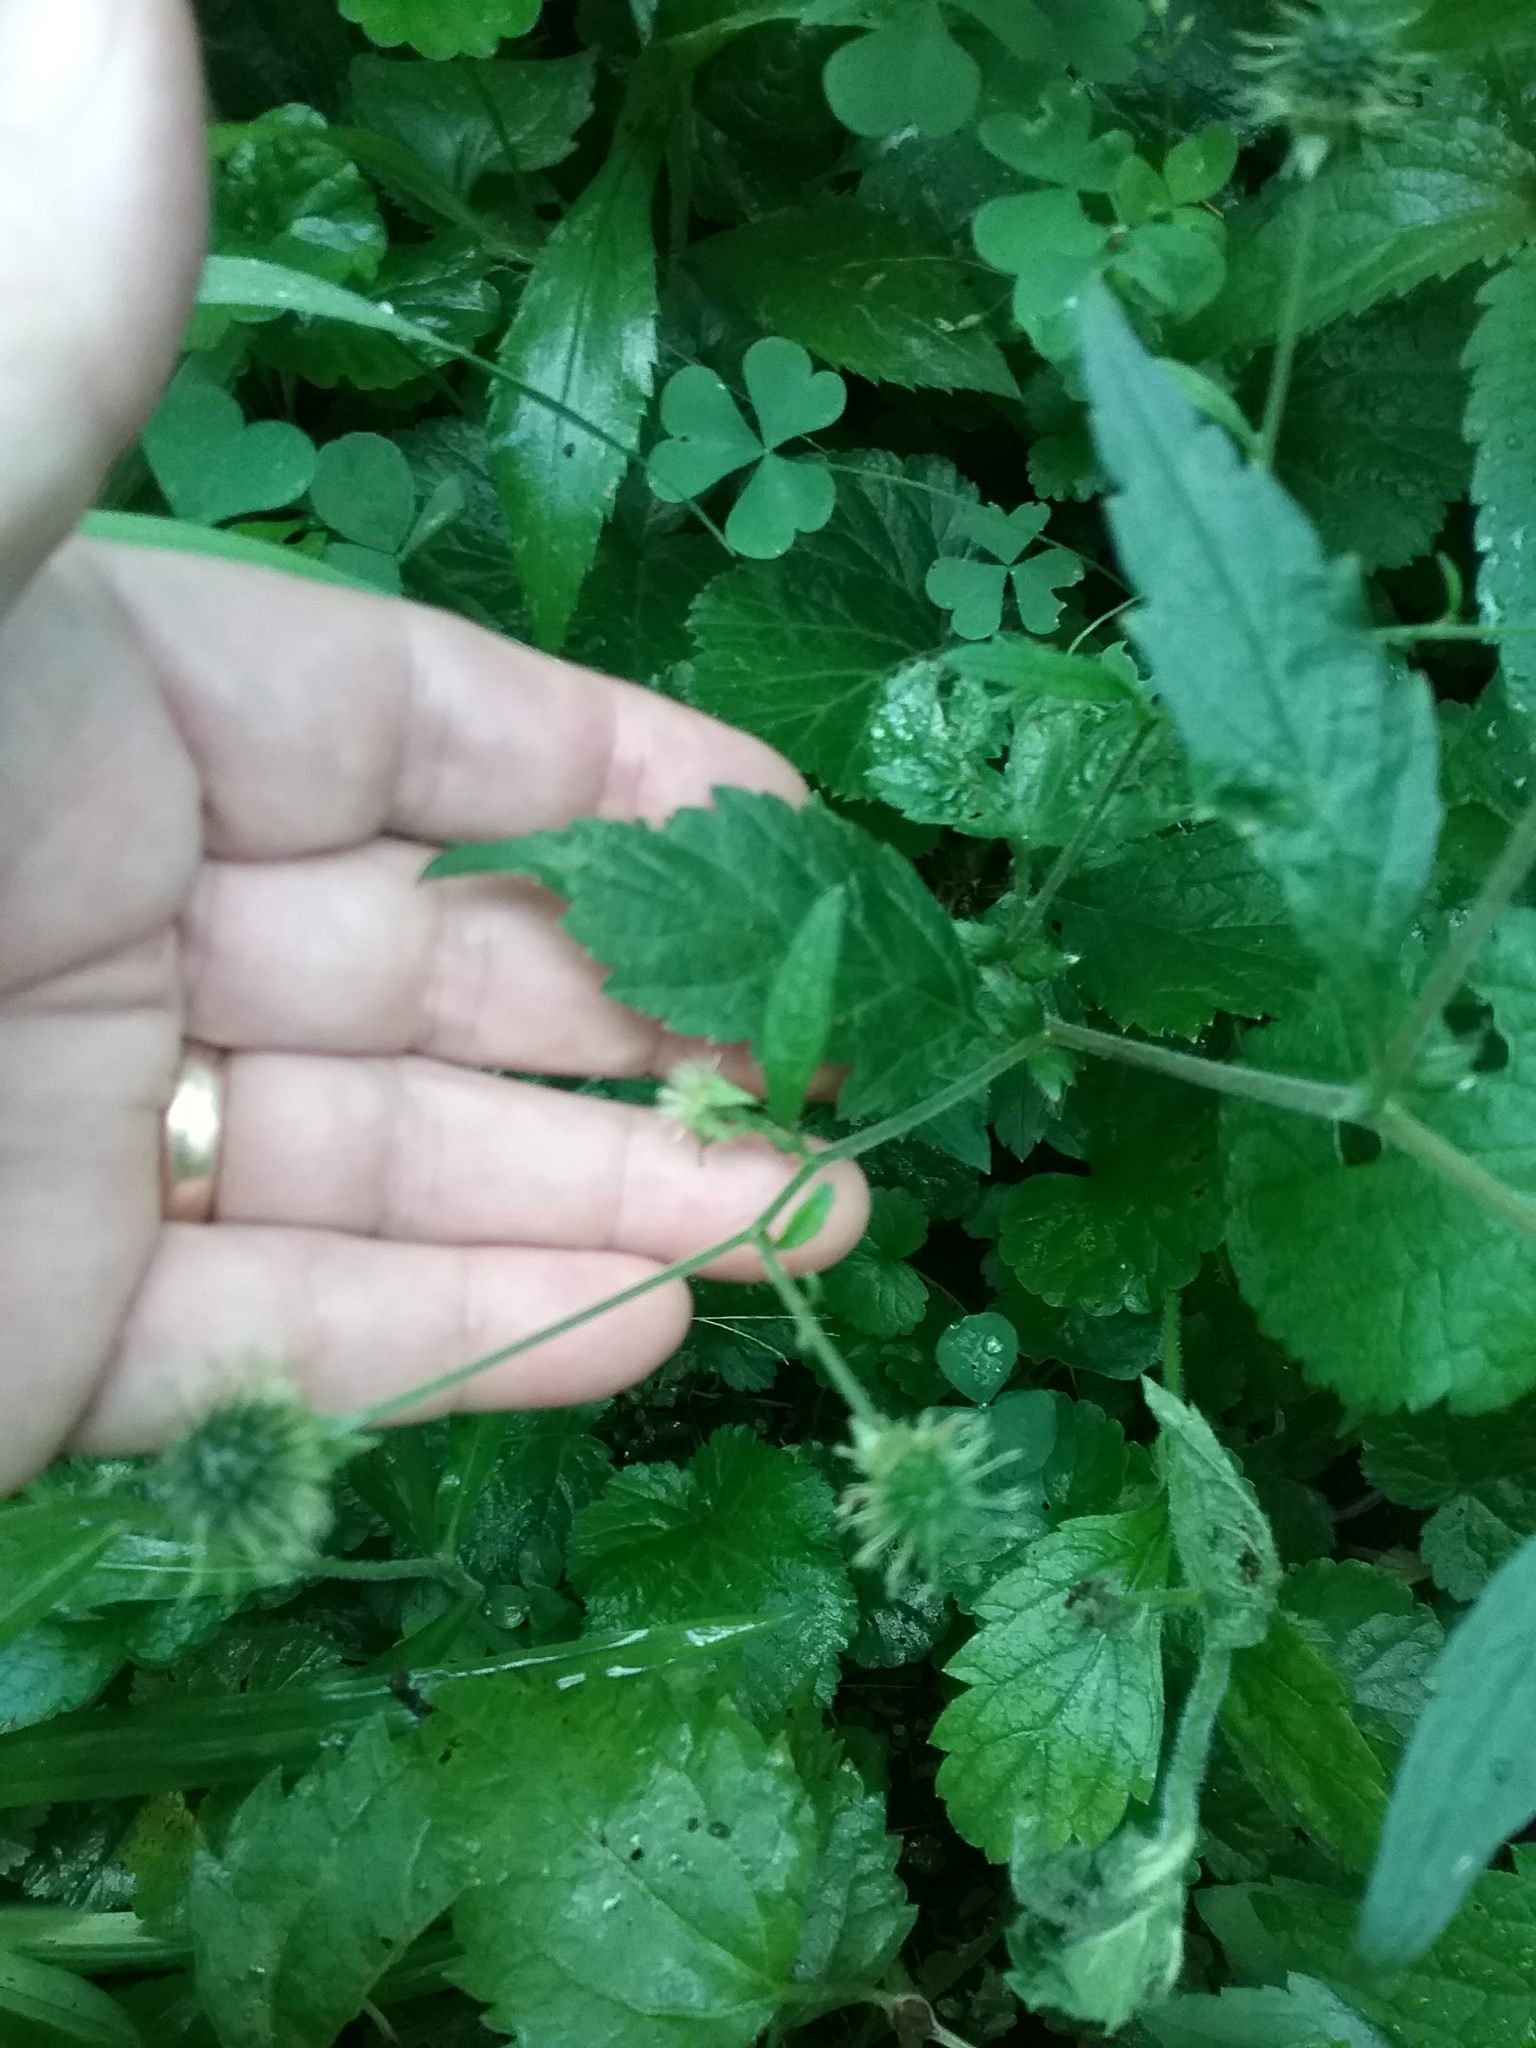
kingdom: Plantae
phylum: Tracheophyta
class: Magnoliopsida
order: Rosales
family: Rosaceae
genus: Geum
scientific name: Geum canadense
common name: White avens
